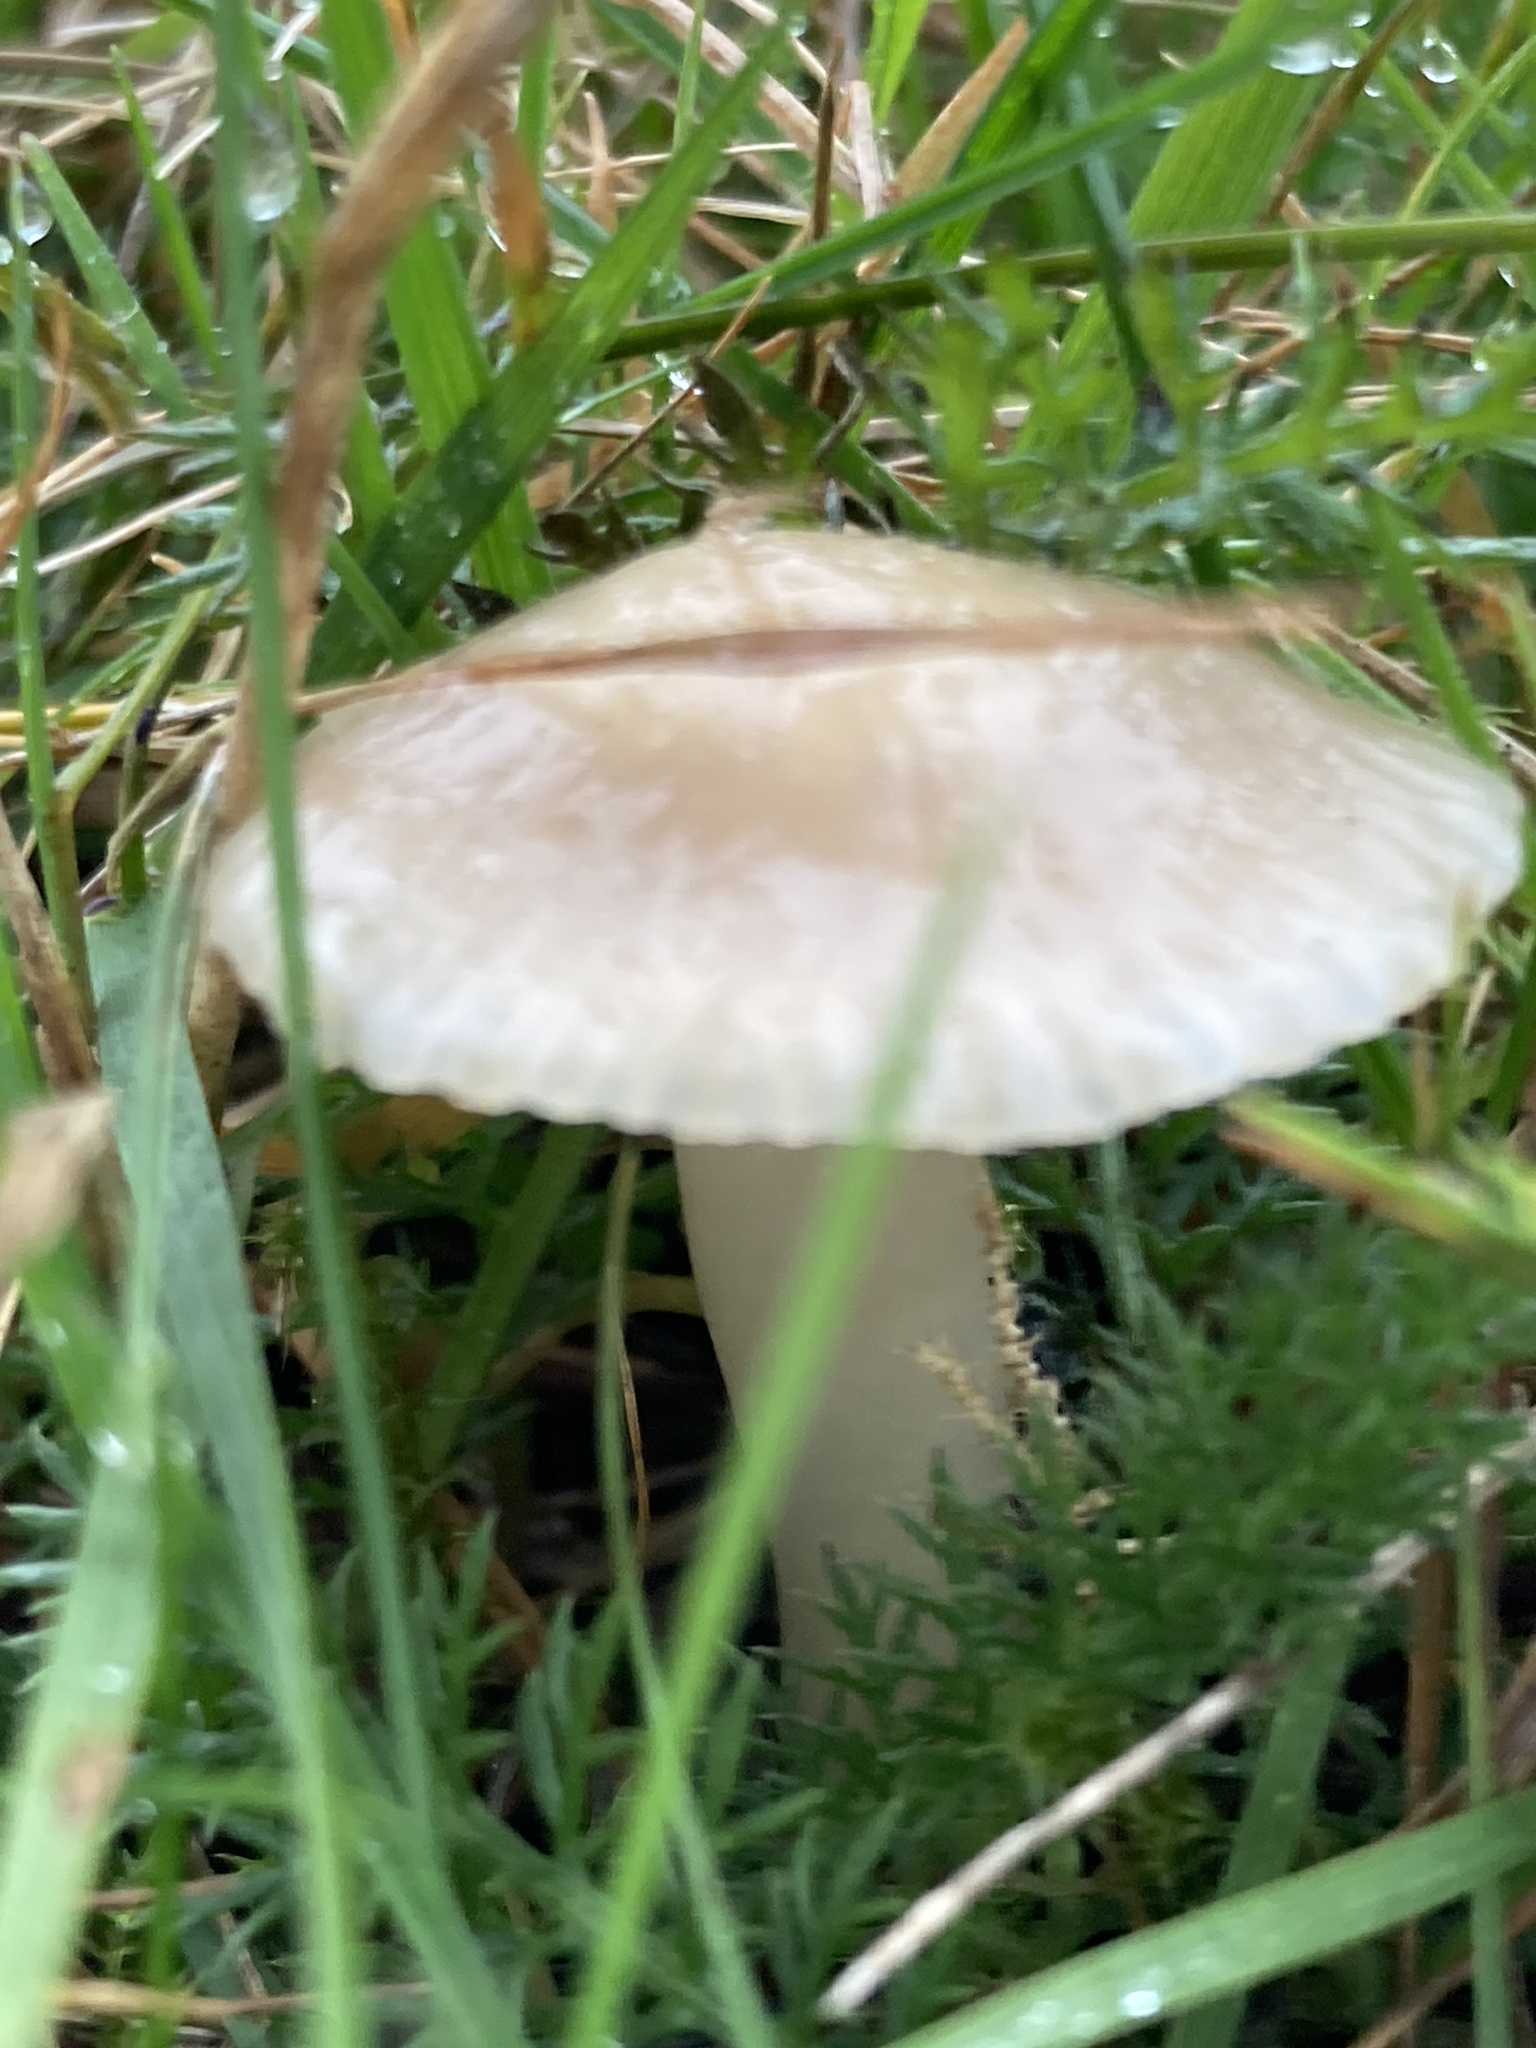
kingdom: Fungi
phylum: Basidiomycota
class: Agaricomycetes
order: Agaricales
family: Hygrophoraceae
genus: Cuphophyllus
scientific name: Cuphophyllus virgineus
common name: Snowy waxcap
